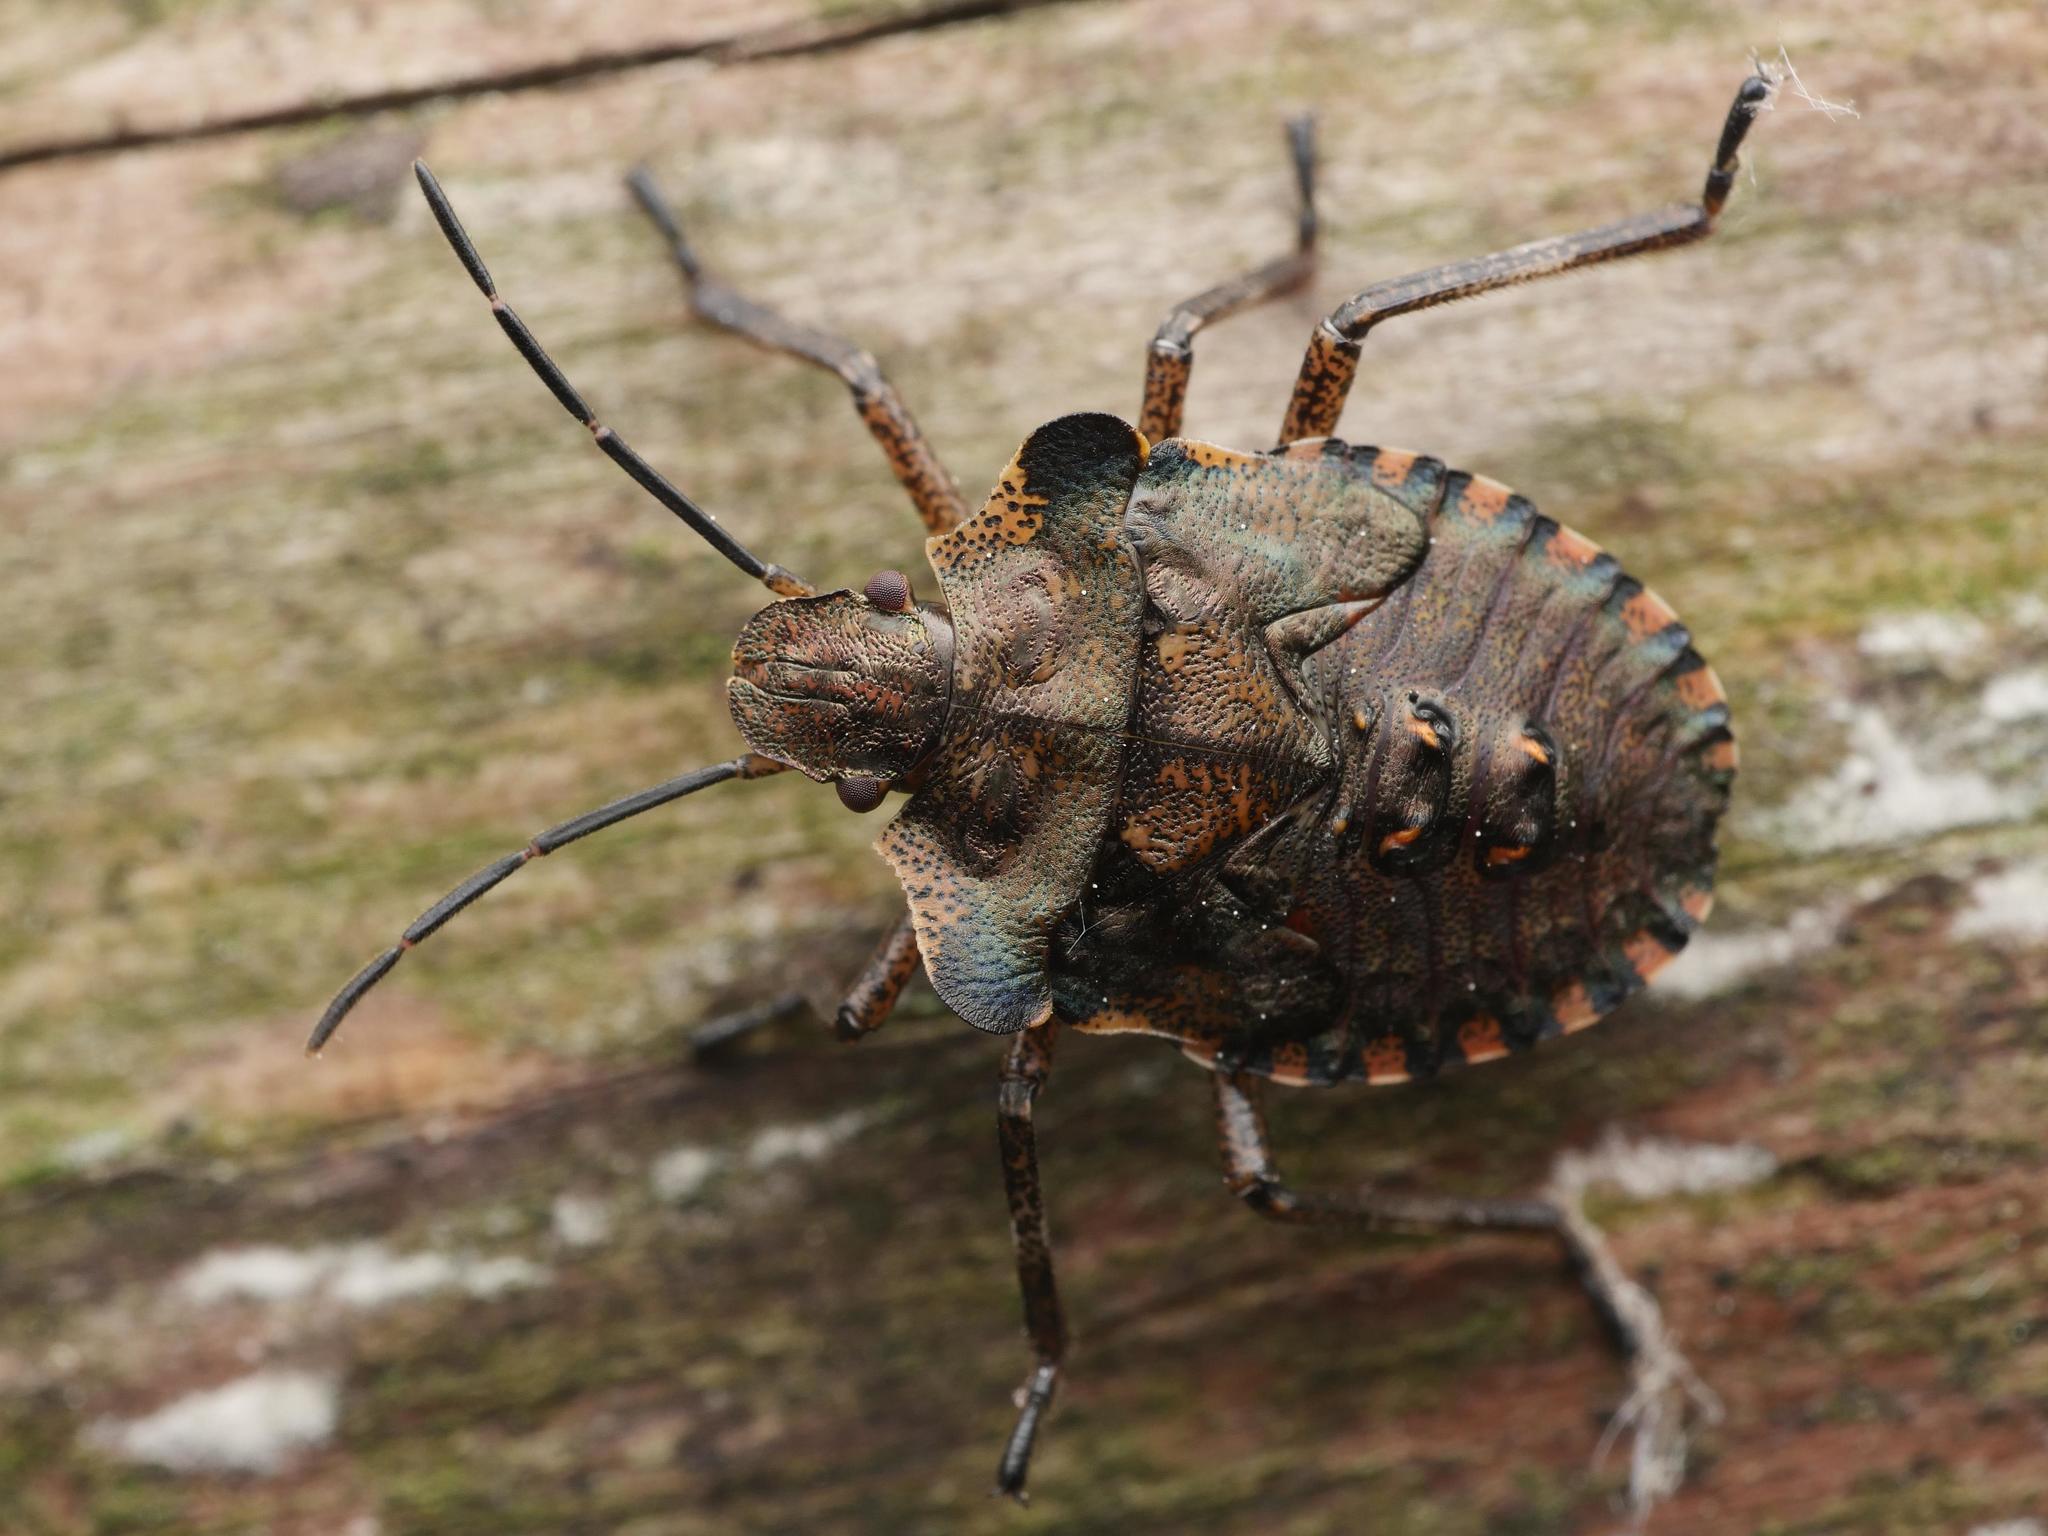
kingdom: Animalia
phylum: Arthropoda
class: Insecta
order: Hemiptera
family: Pentatomidae
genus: Pentatoma
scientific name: Pentatoma rufipes
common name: Forest bug
